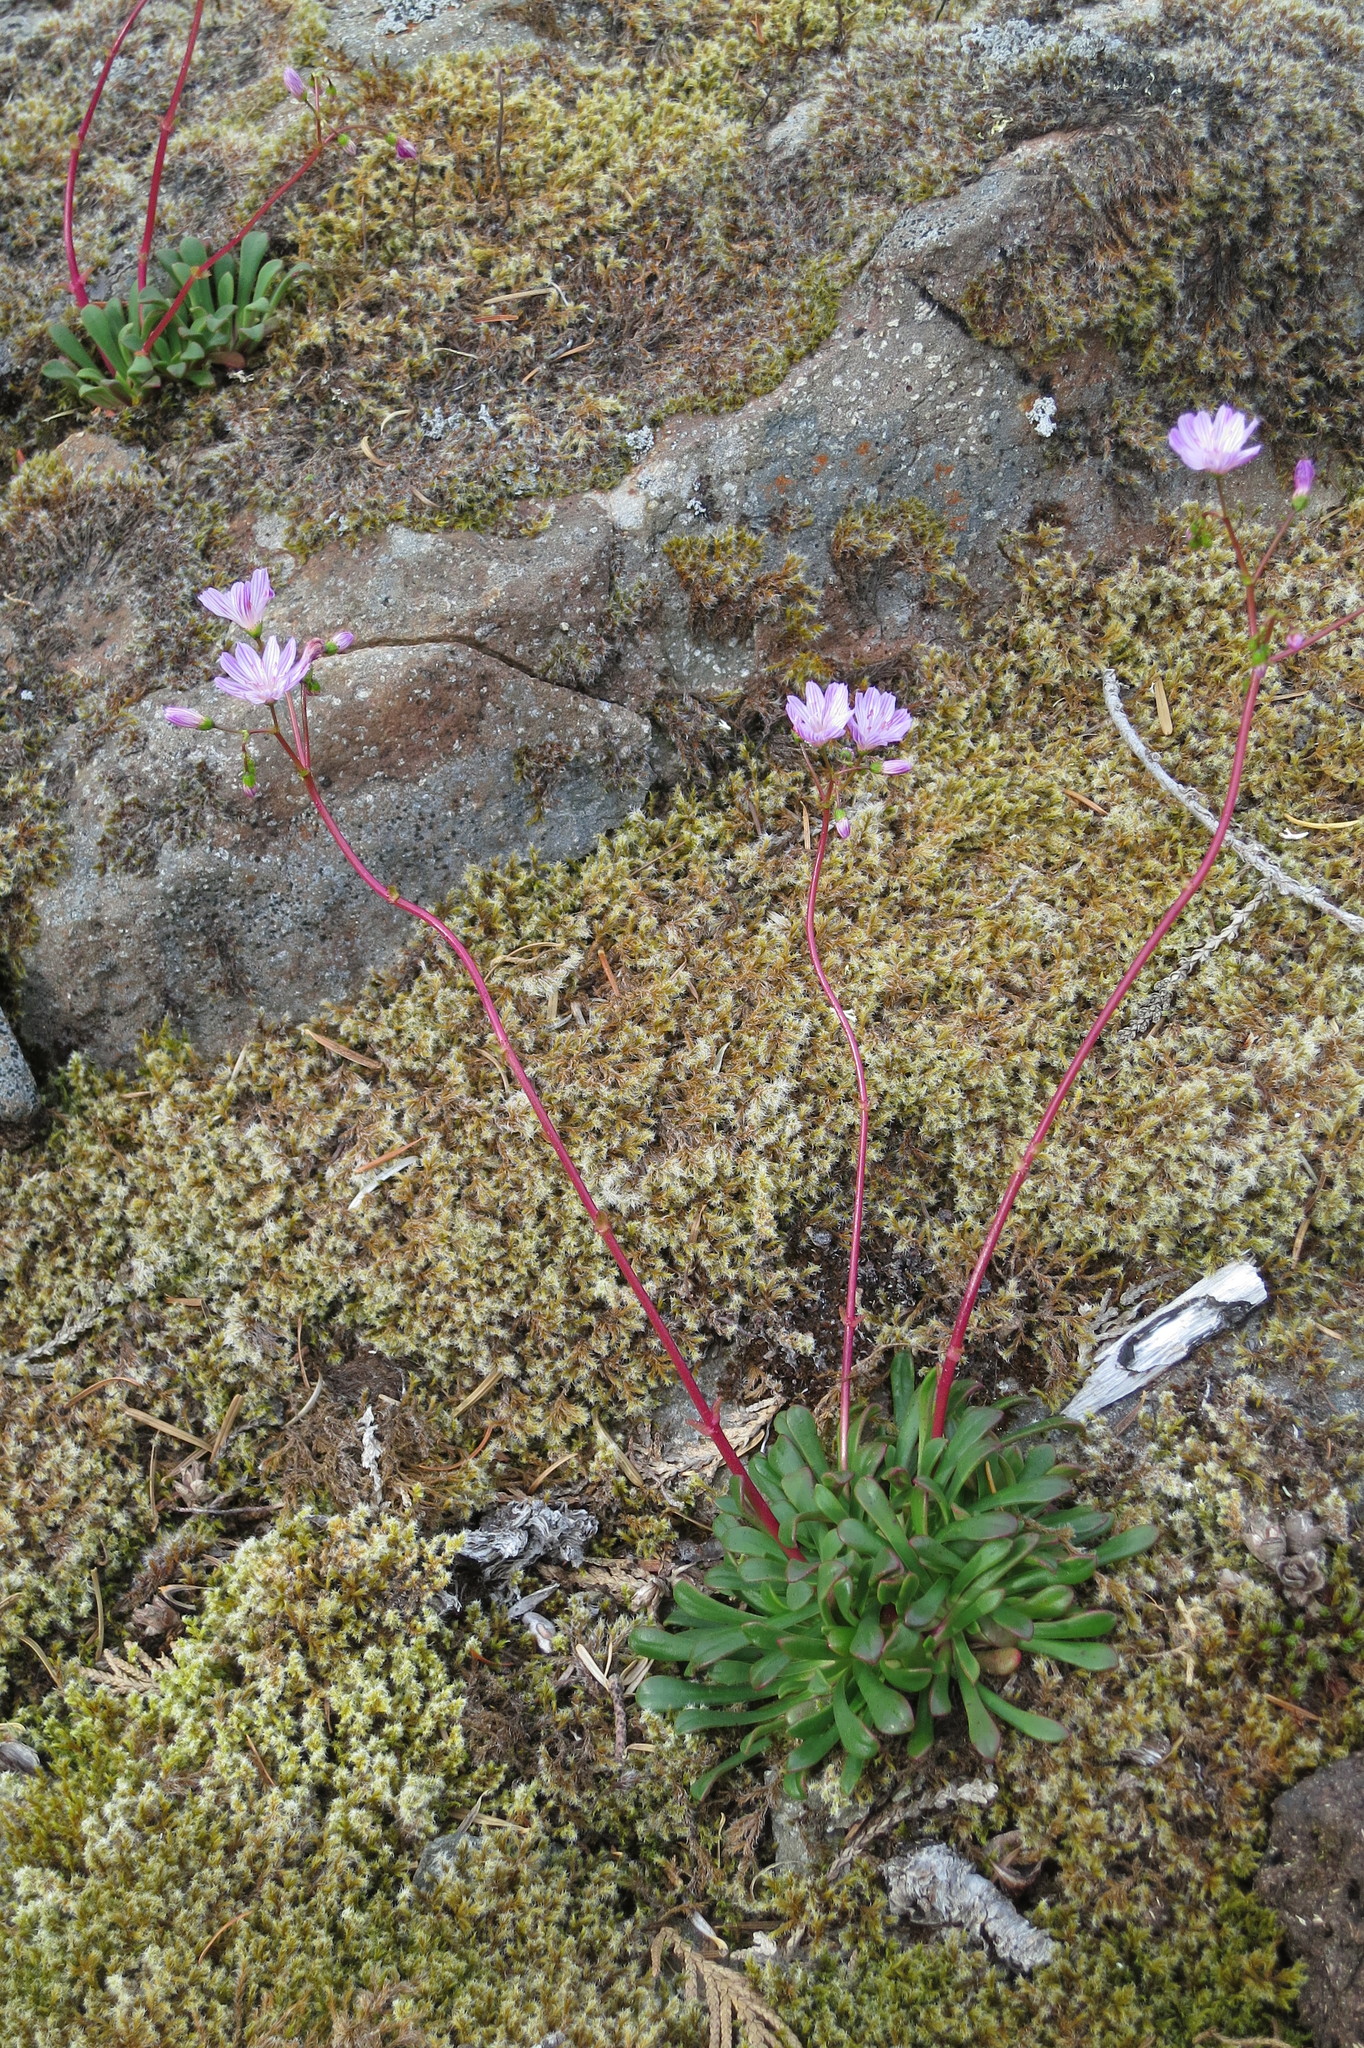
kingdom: Plantae
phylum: Tracheophyta
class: Magnoliopsida
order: Caryophyllales
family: Montiaceae
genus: Lewisia
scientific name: Lewisia columbiana
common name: Columbia lewisia
